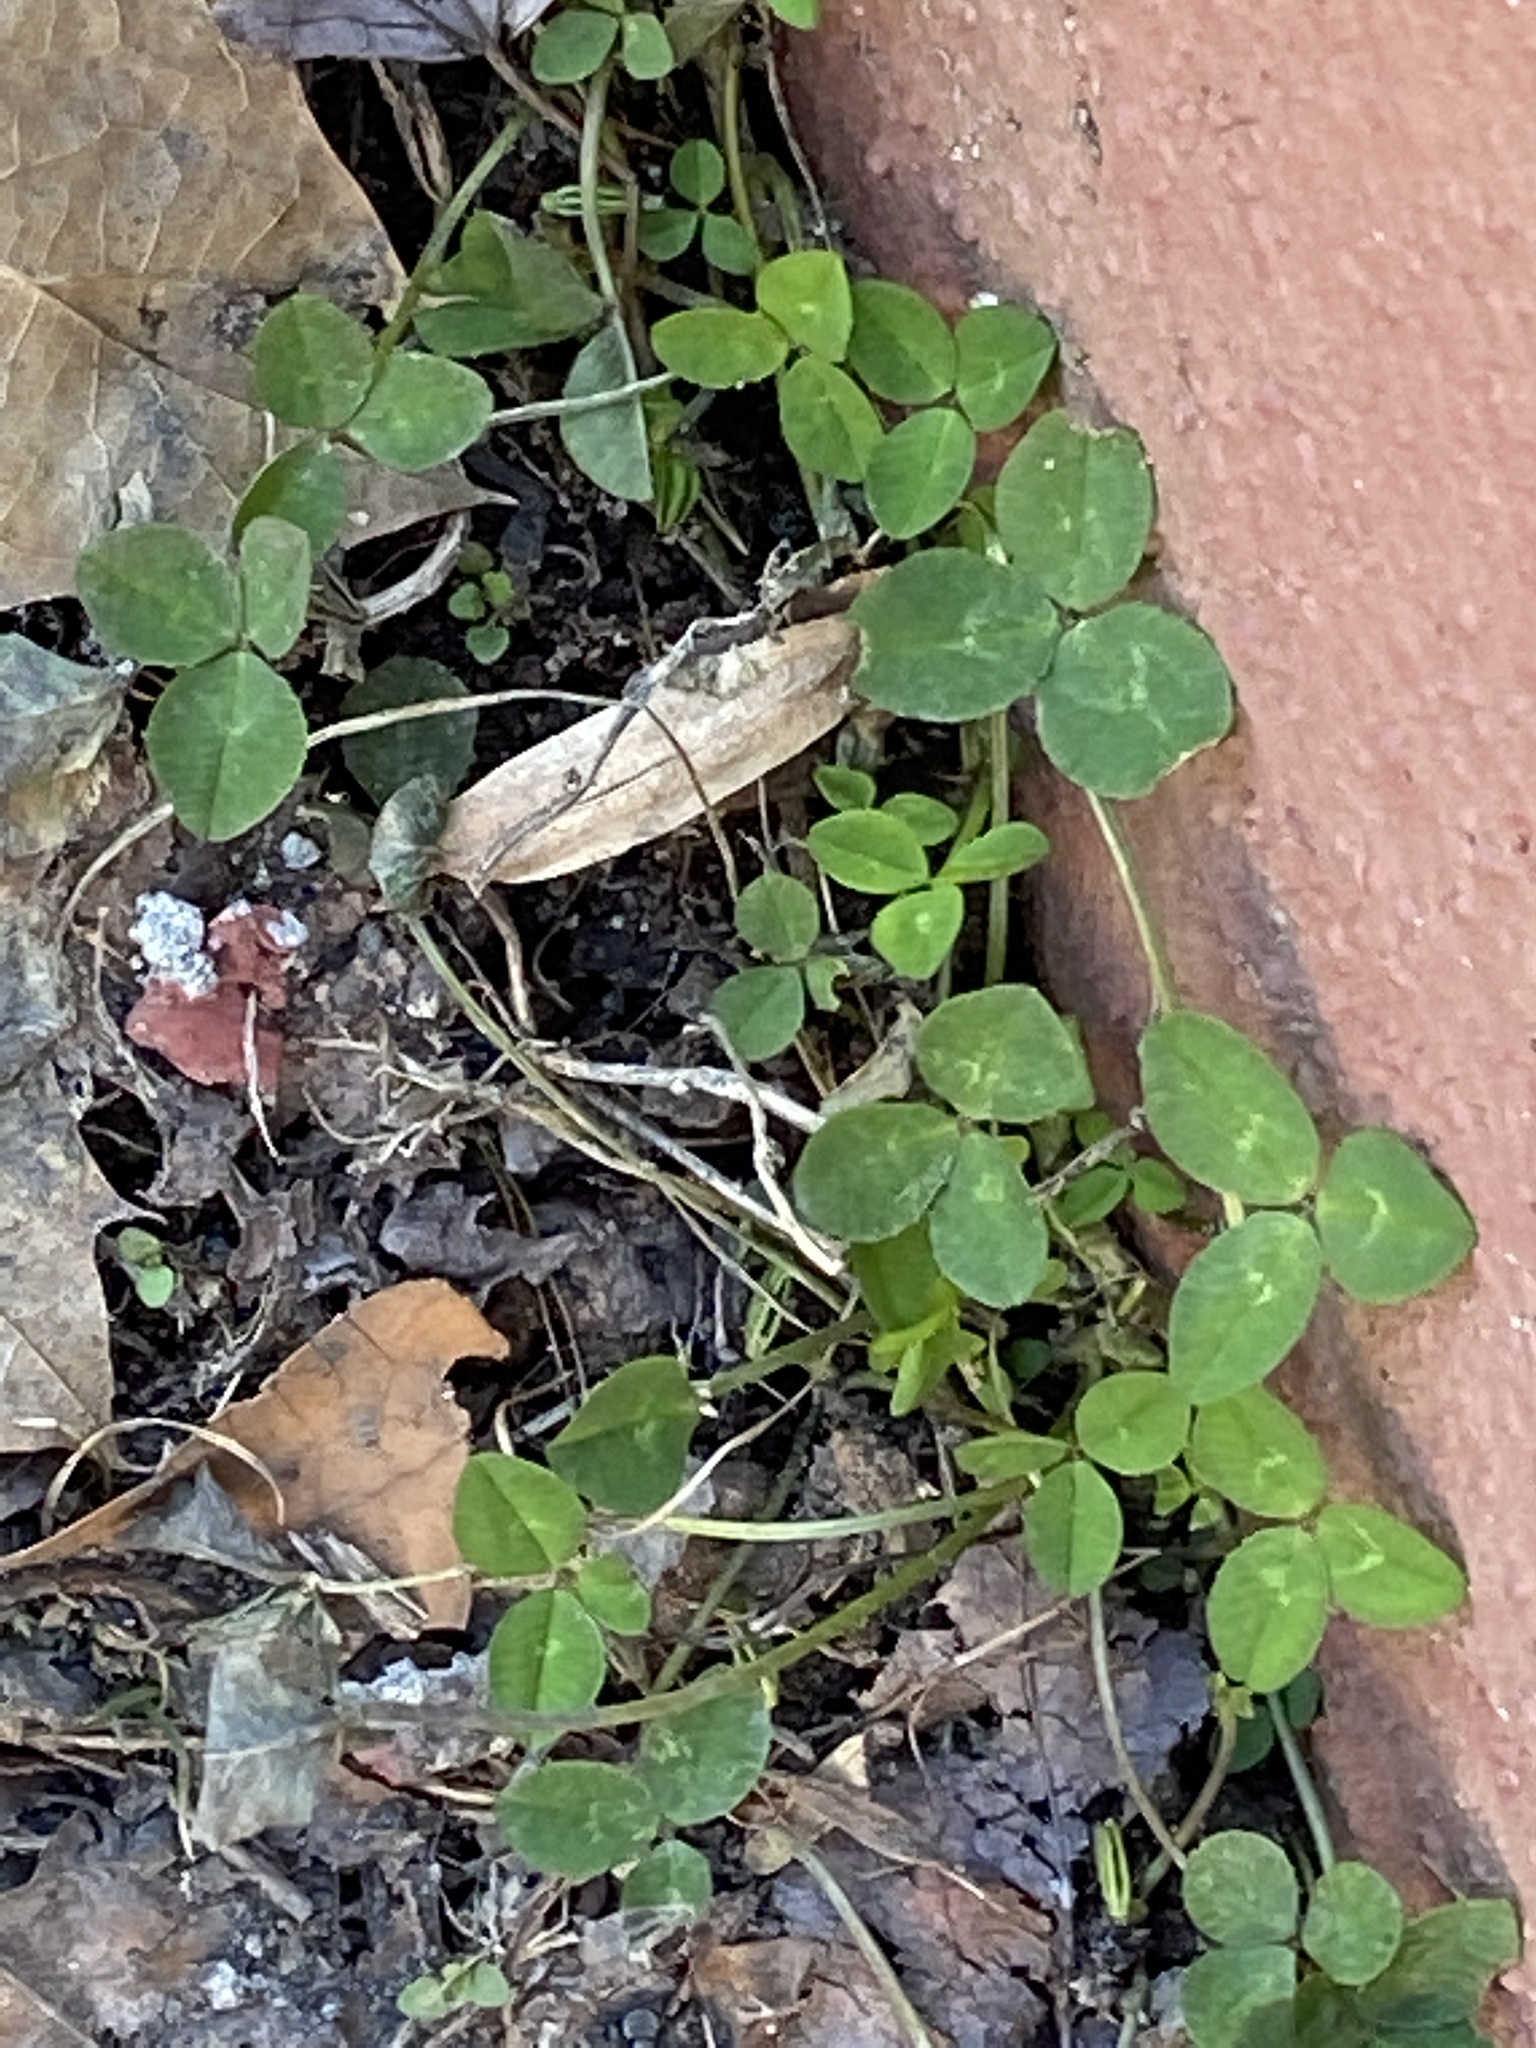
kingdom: Plantae
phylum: Tracheophyta
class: Magnoliopsida
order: Fabales
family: Fabaceae
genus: Trifolium
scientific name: Trifolium repens
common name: White clover
